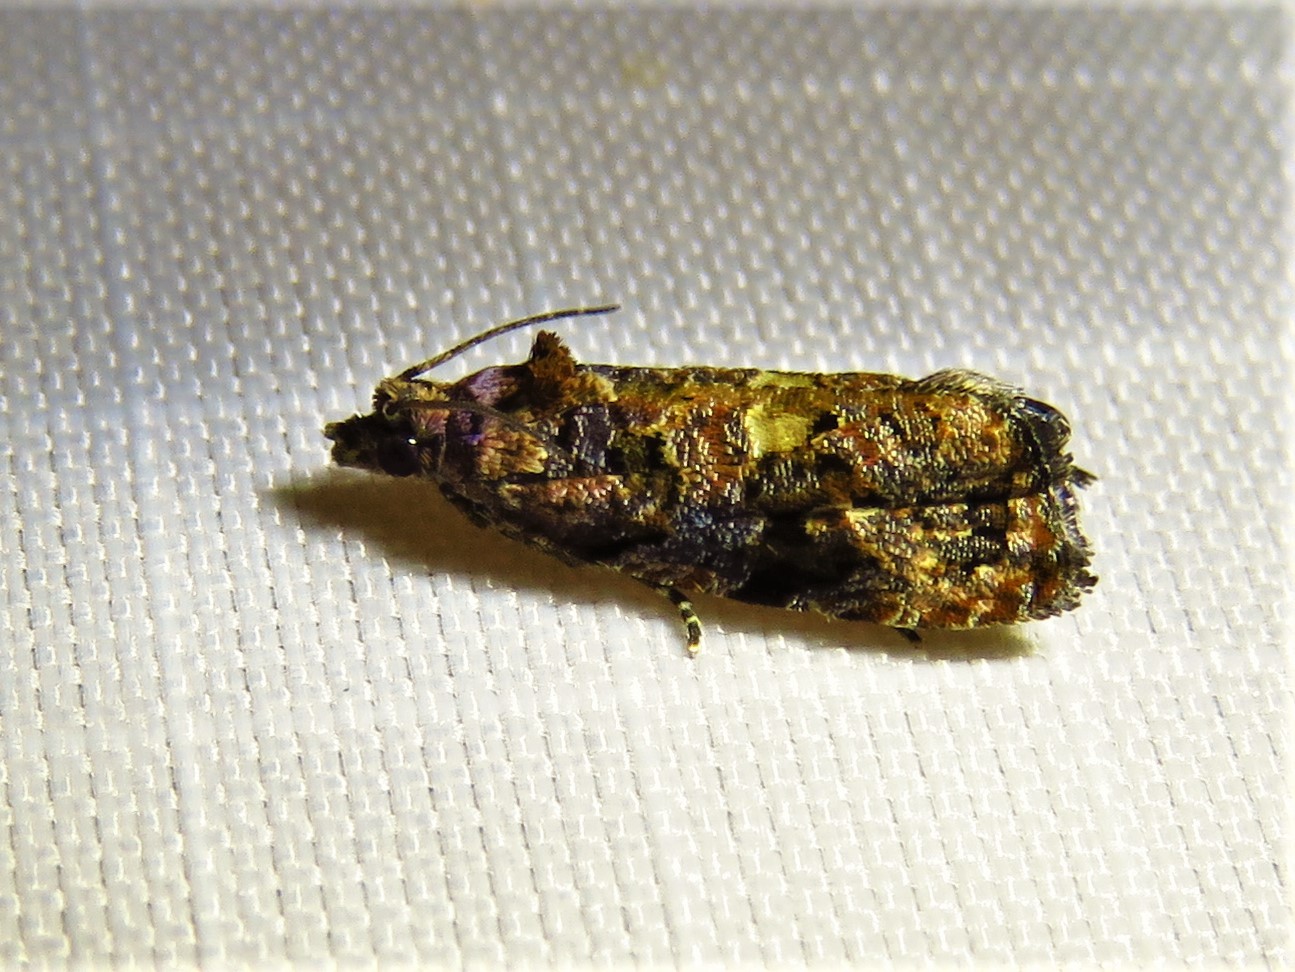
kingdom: Animalia
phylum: Arthropoda
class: Insecta
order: Lepidoptera
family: Tortricidae
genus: Endothenia
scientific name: Endothenia hebesana
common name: Verbena bud moth
